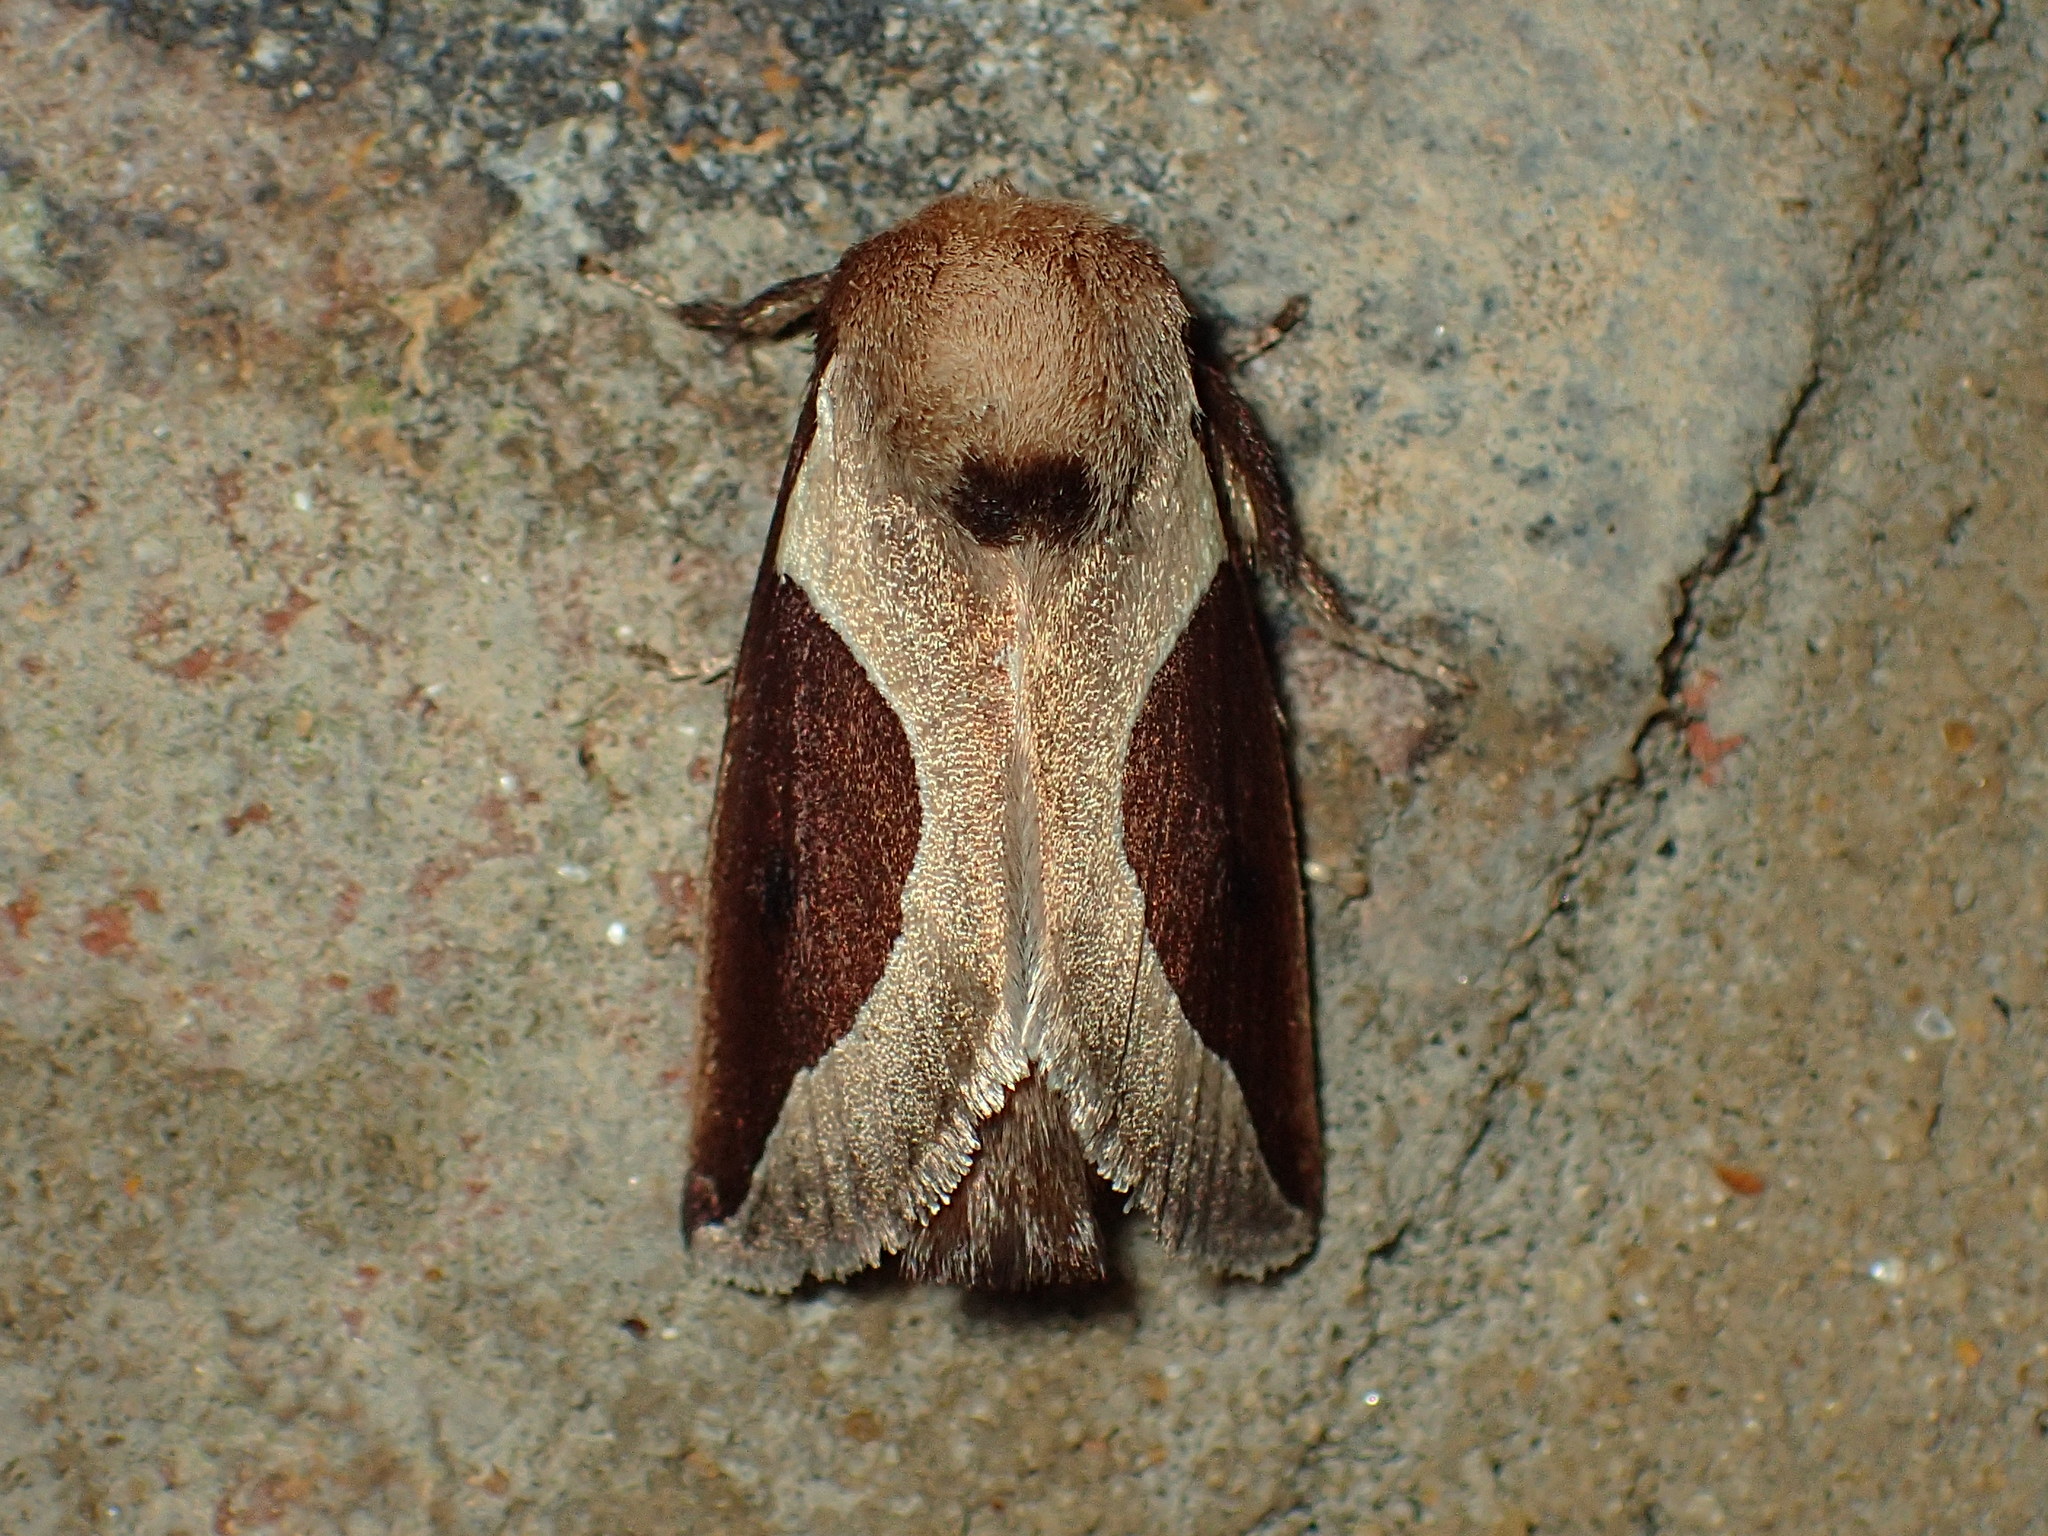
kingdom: Animalia
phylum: Arthropoda
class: Insecta
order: Lepidoptera
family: Limacodidae
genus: Prolimacodes
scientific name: Prolimacodes badia
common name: Skiff moth
